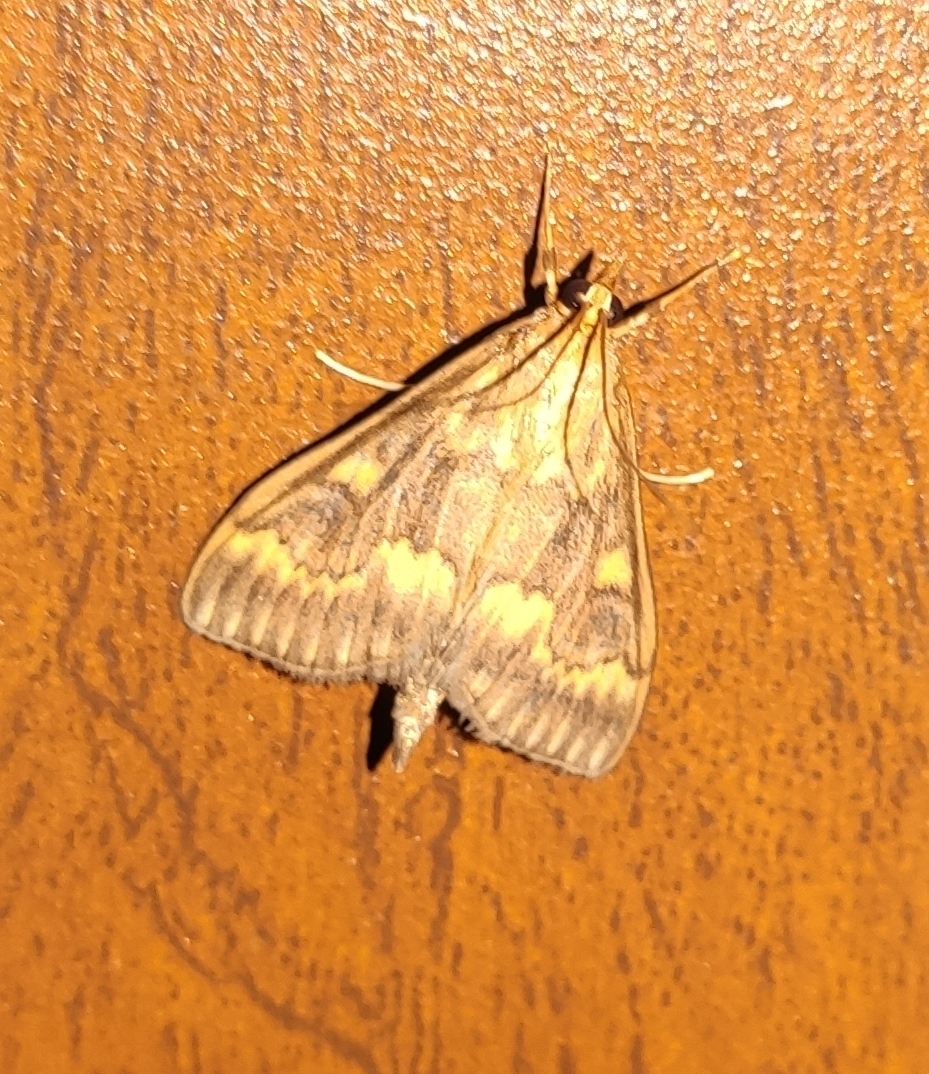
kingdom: Animalia
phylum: Arthropoda
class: Insecta
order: Lepidoptera
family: Crambidae
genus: Ostrinia
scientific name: Ostrinia nubilalis
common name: European corn borer
